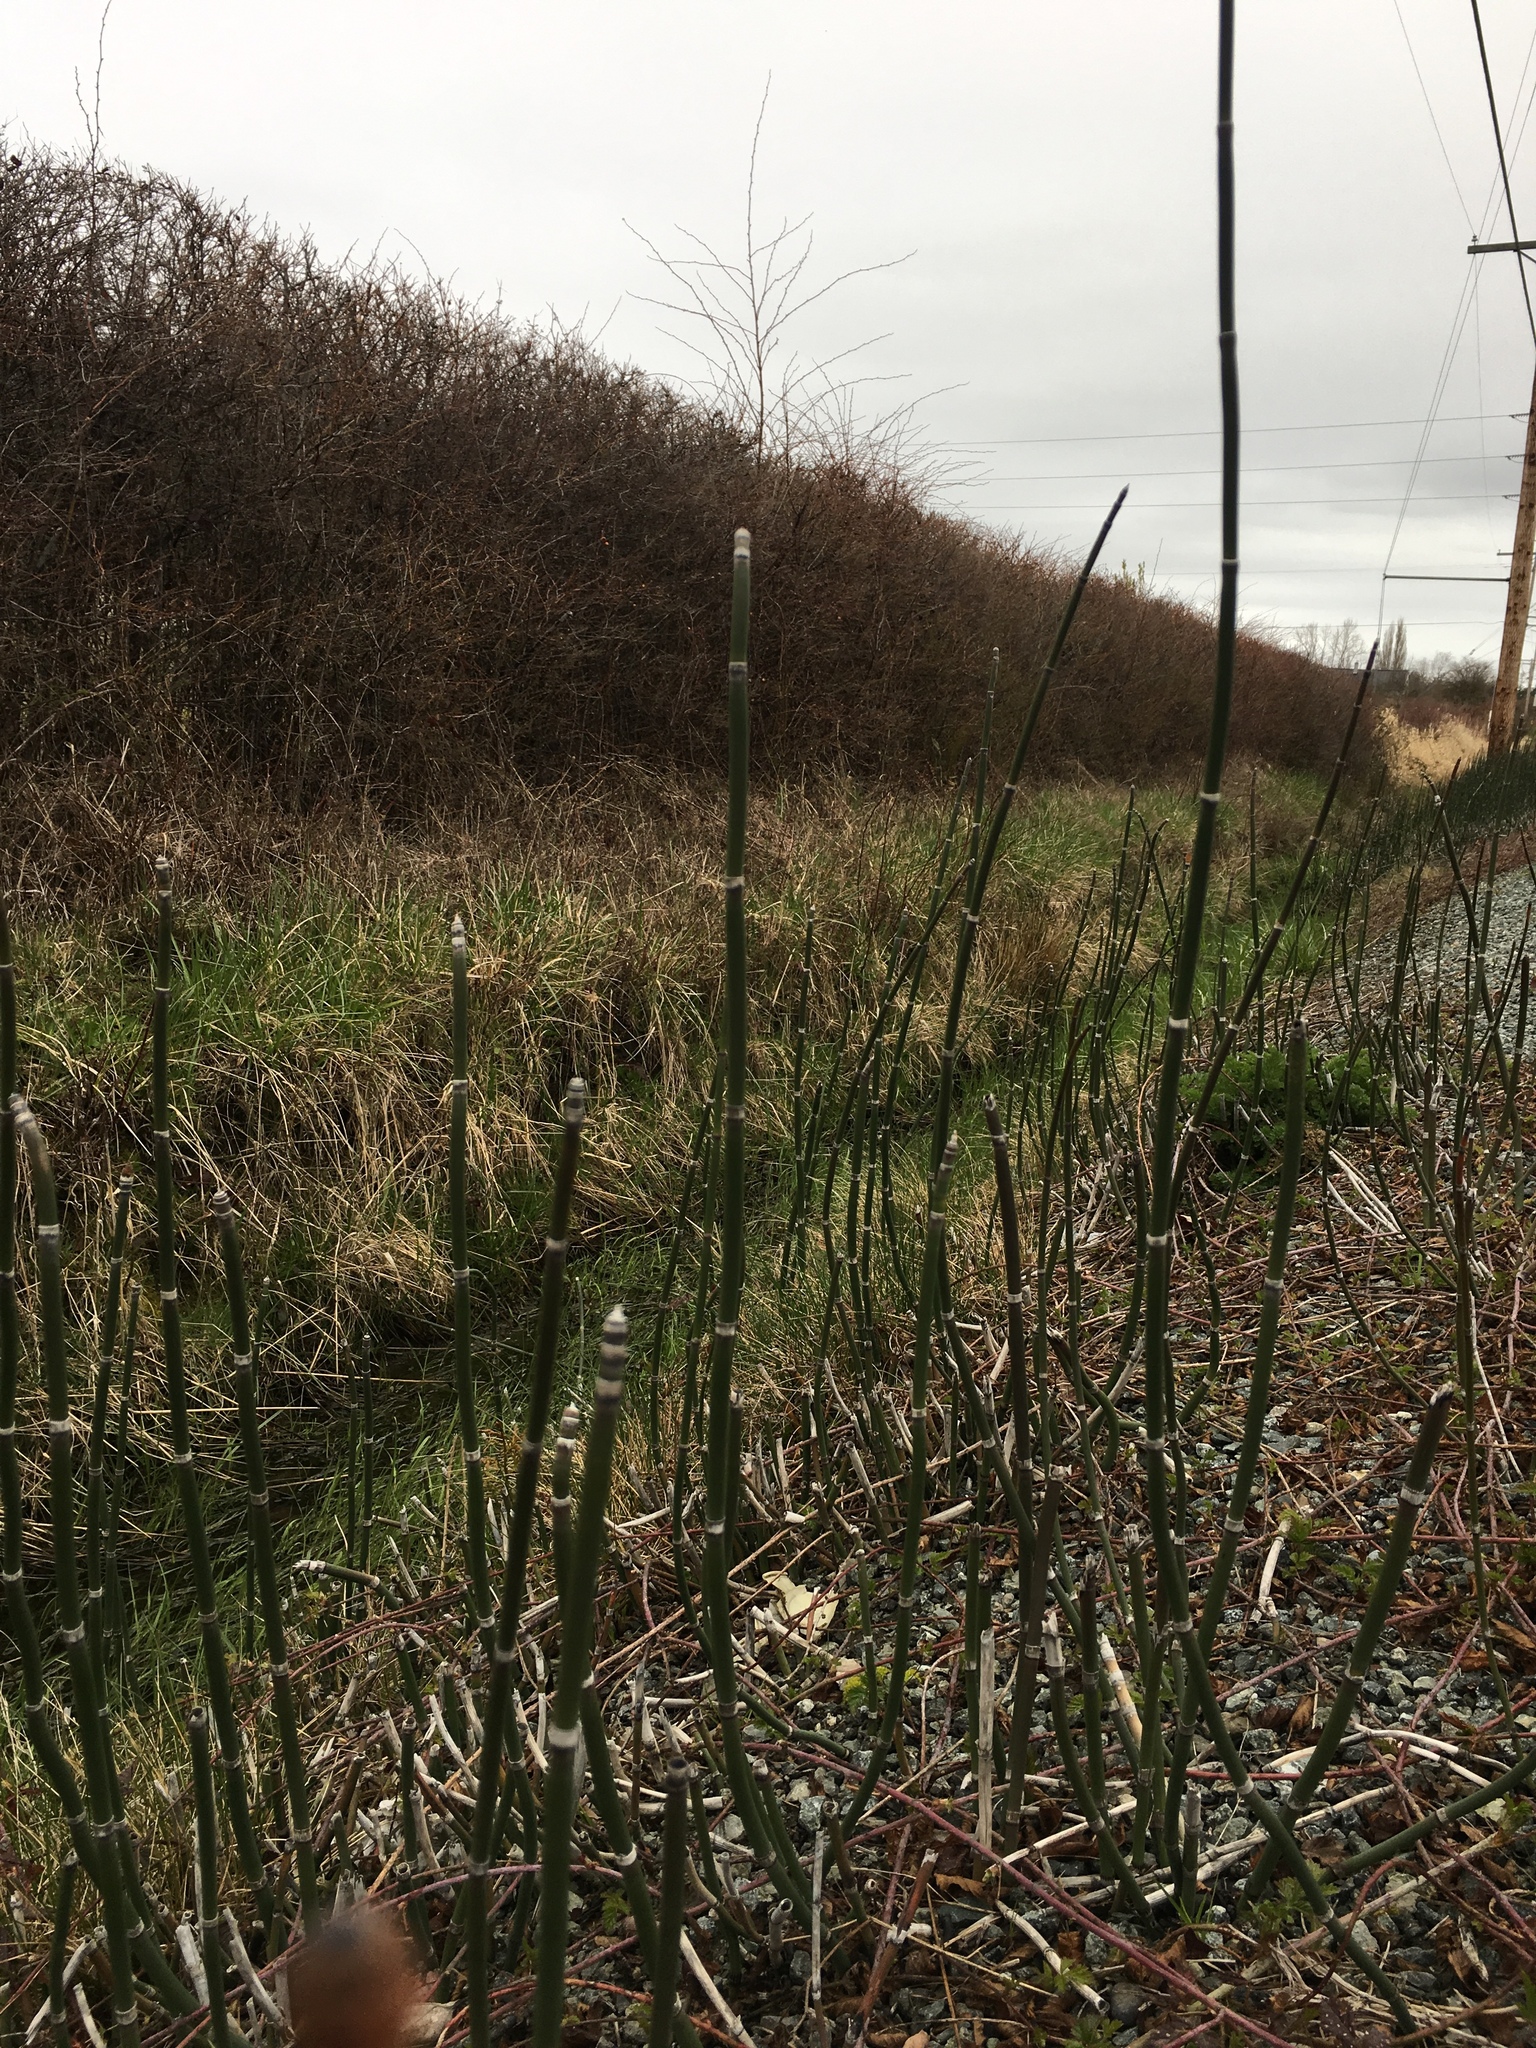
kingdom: Plantae
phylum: Tracheophyta
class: Polypodiopsida
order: Equisetales
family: Equisetaceae
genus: Equisetum
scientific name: Equisetum hyemale
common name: Rough horsetail
